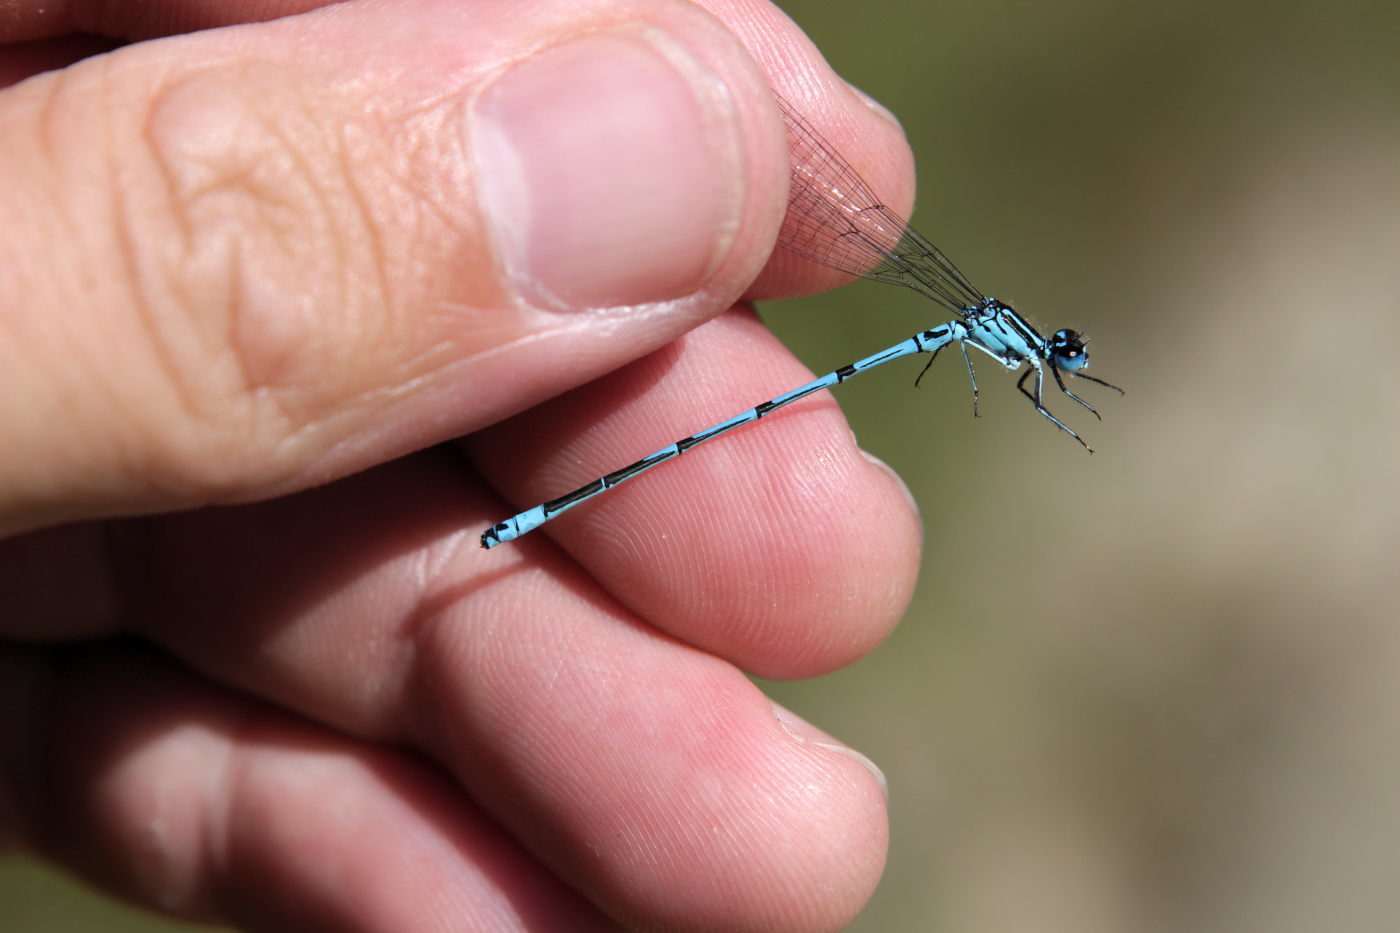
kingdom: Animalia
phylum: Arthropoda
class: Insecta
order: Odonata
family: Coenagrionidae
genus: Coenagrion
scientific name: Coenagrion puella
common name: Azure damselfly
